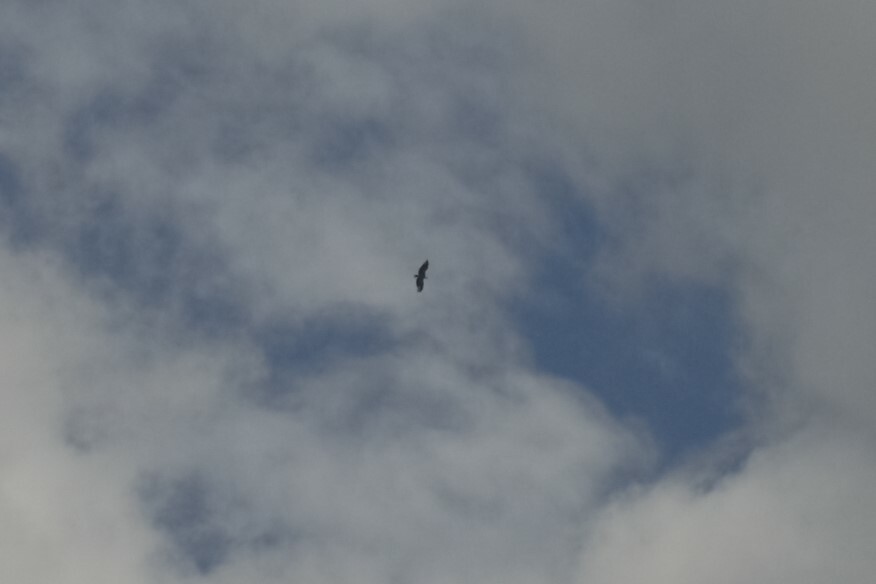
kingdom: Animalia
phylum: Chordata
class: Aves
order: Accipitriformes
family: Accipitridae
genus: Gyps
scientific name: Gyps fulvus
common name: Griffon vulture
